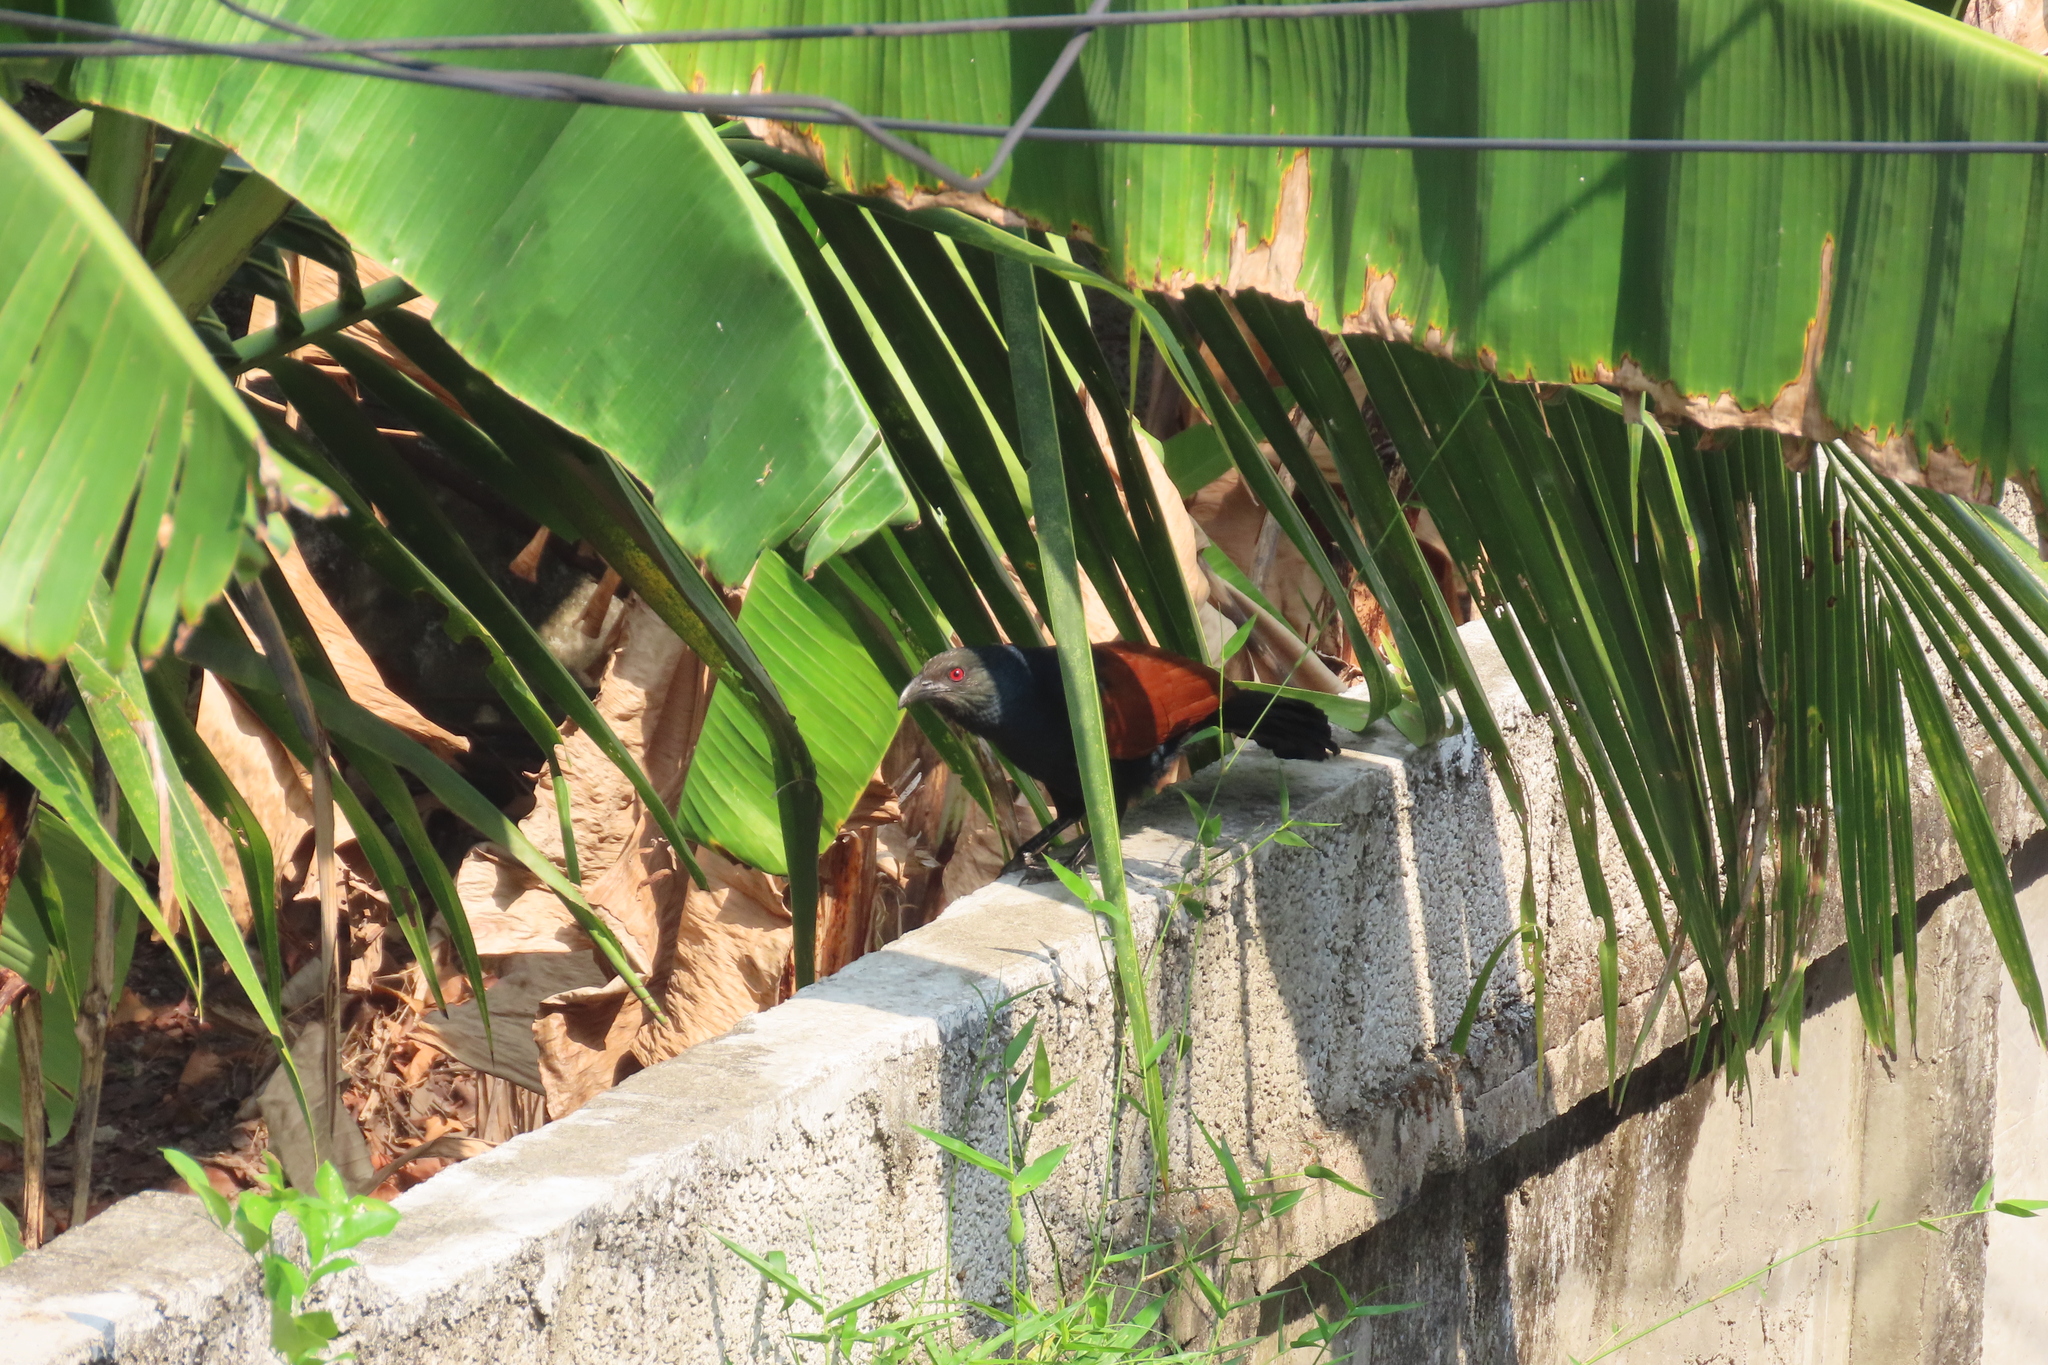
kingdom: Animalia
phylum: Chordata
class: Aves
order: Cuculiformes
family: Cuculidae
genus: Centropus
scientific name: Centropus sinensis
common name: Greater coucal
